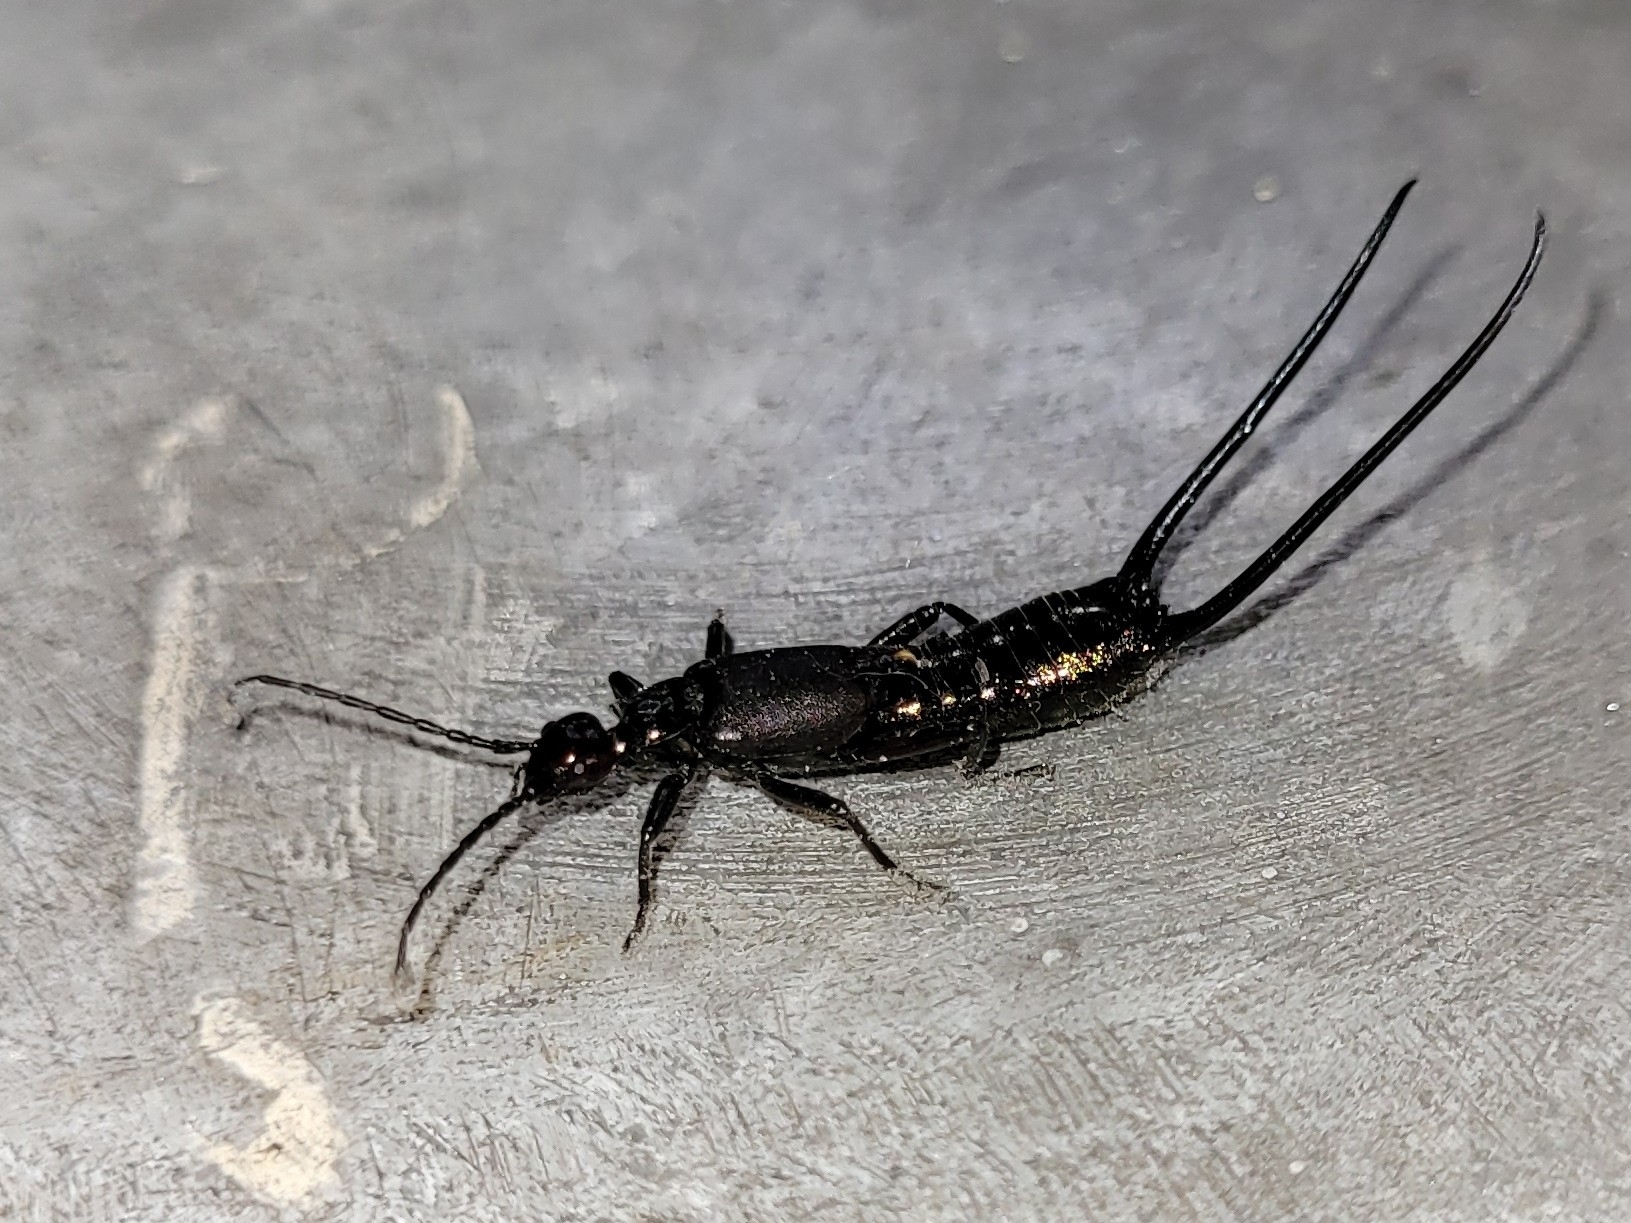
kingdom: Animalia
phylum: Arthropoda
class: Insecta
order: Dermaptera
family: Forficulidae
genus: Eudohrnia
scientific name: Eudohrnia metallica
